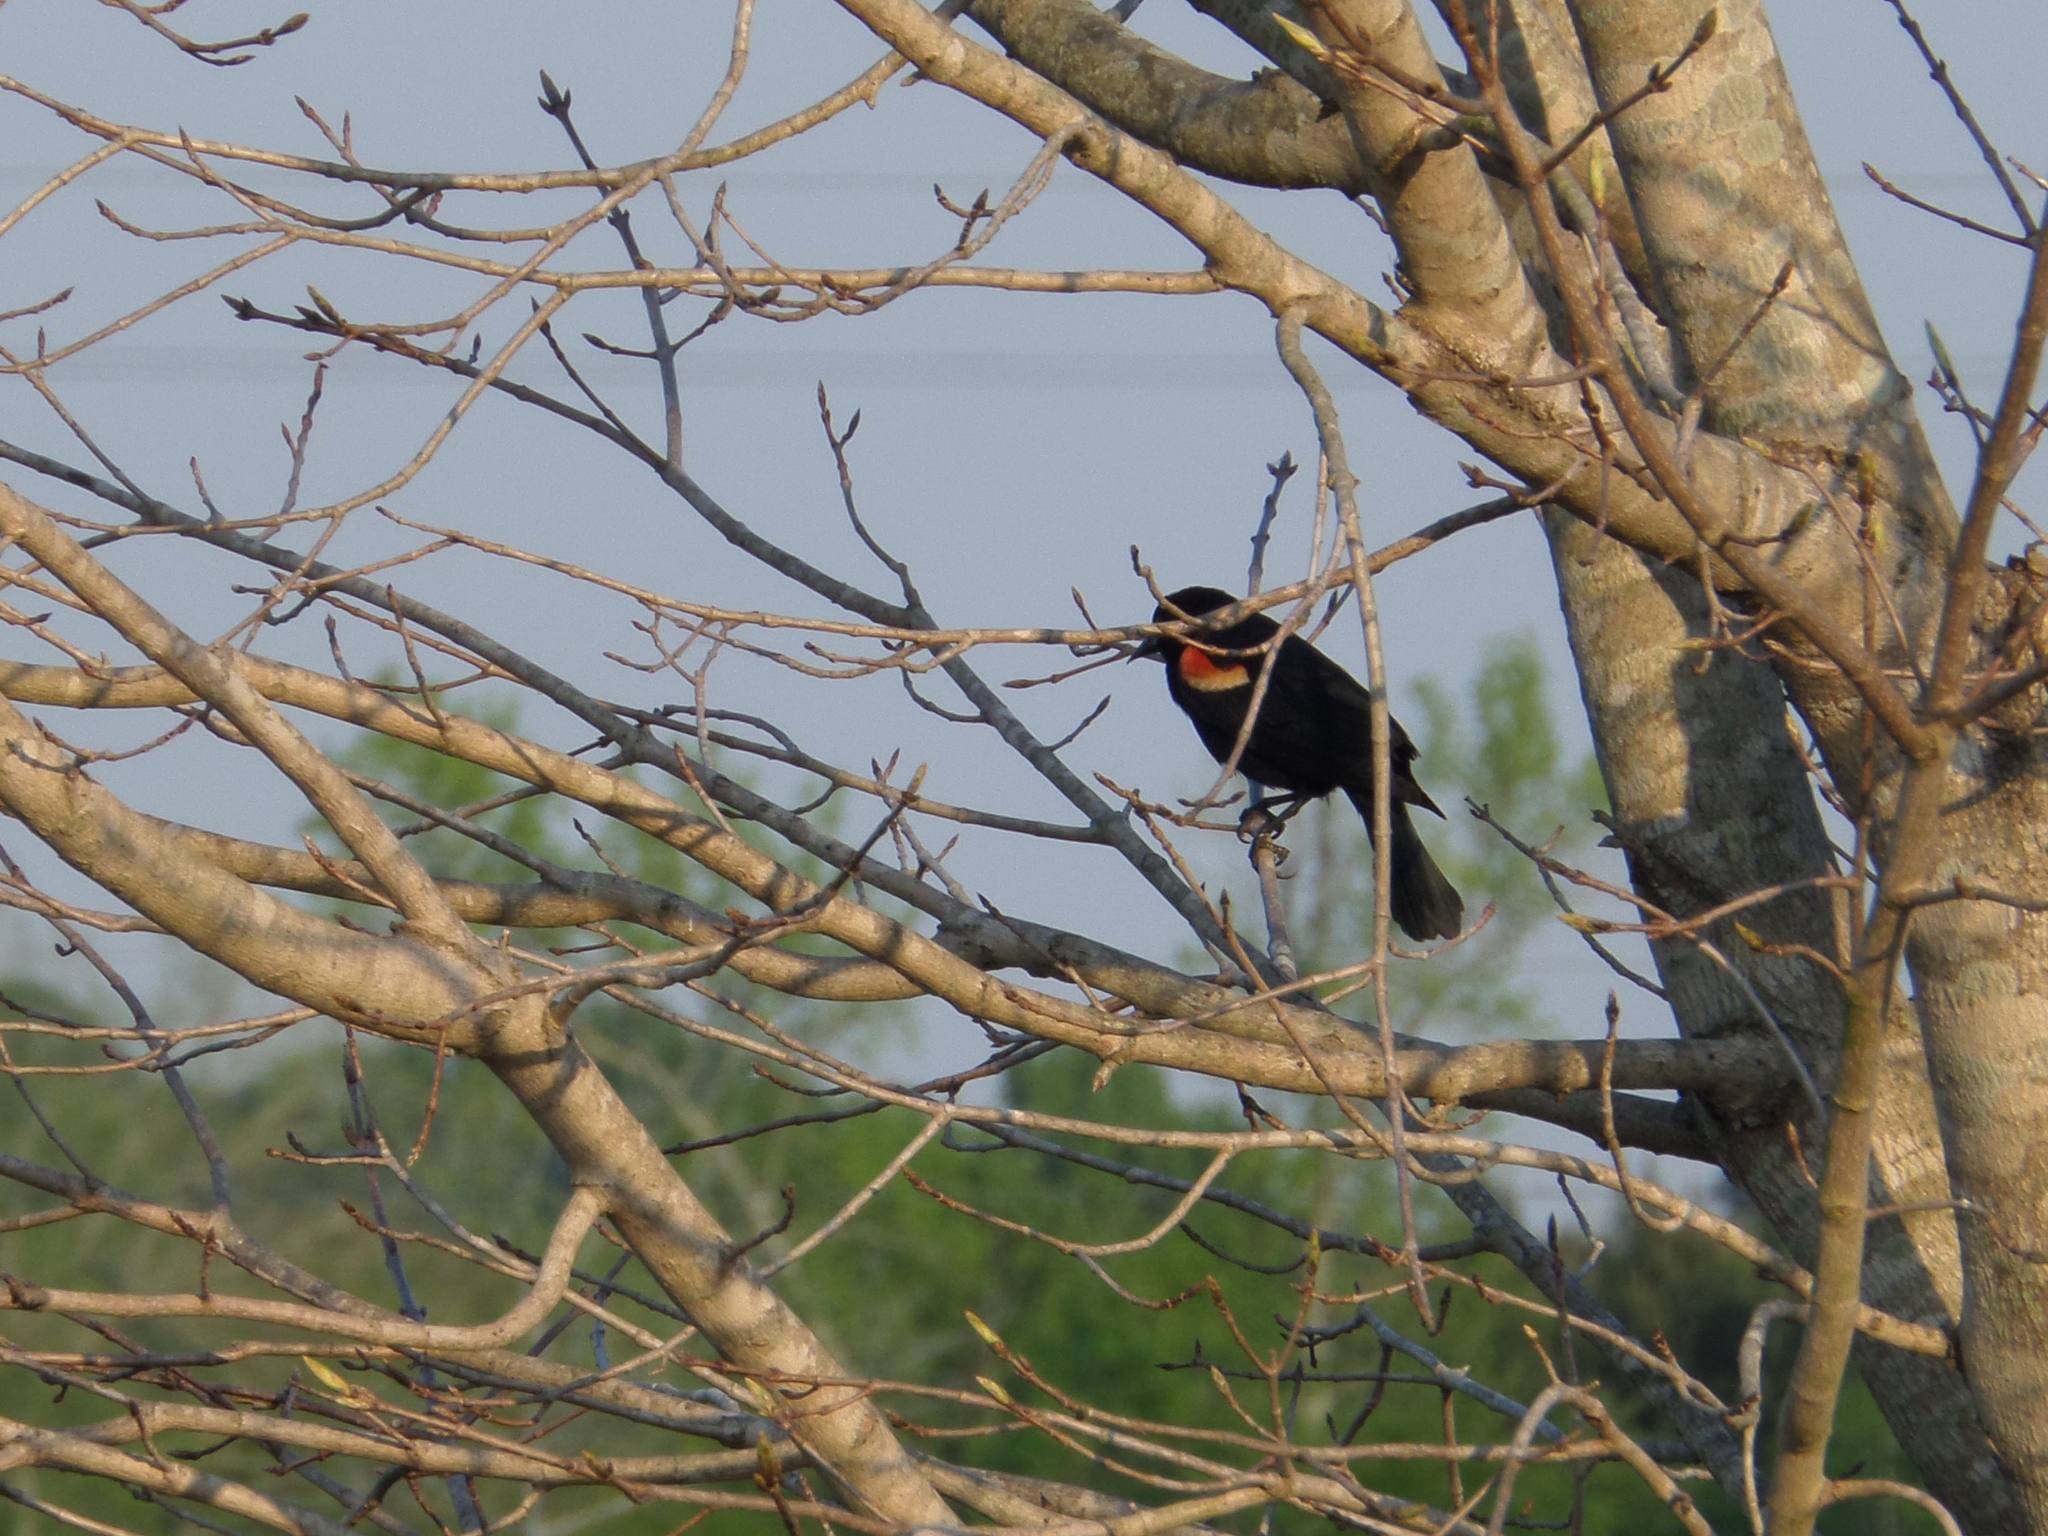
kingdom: Animalia
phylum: Chordata
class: Aves
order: Passeriformes
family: Icteridae
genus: Agelaius
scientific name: Agelaius phoeniceus
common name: Red-winged blackbird
